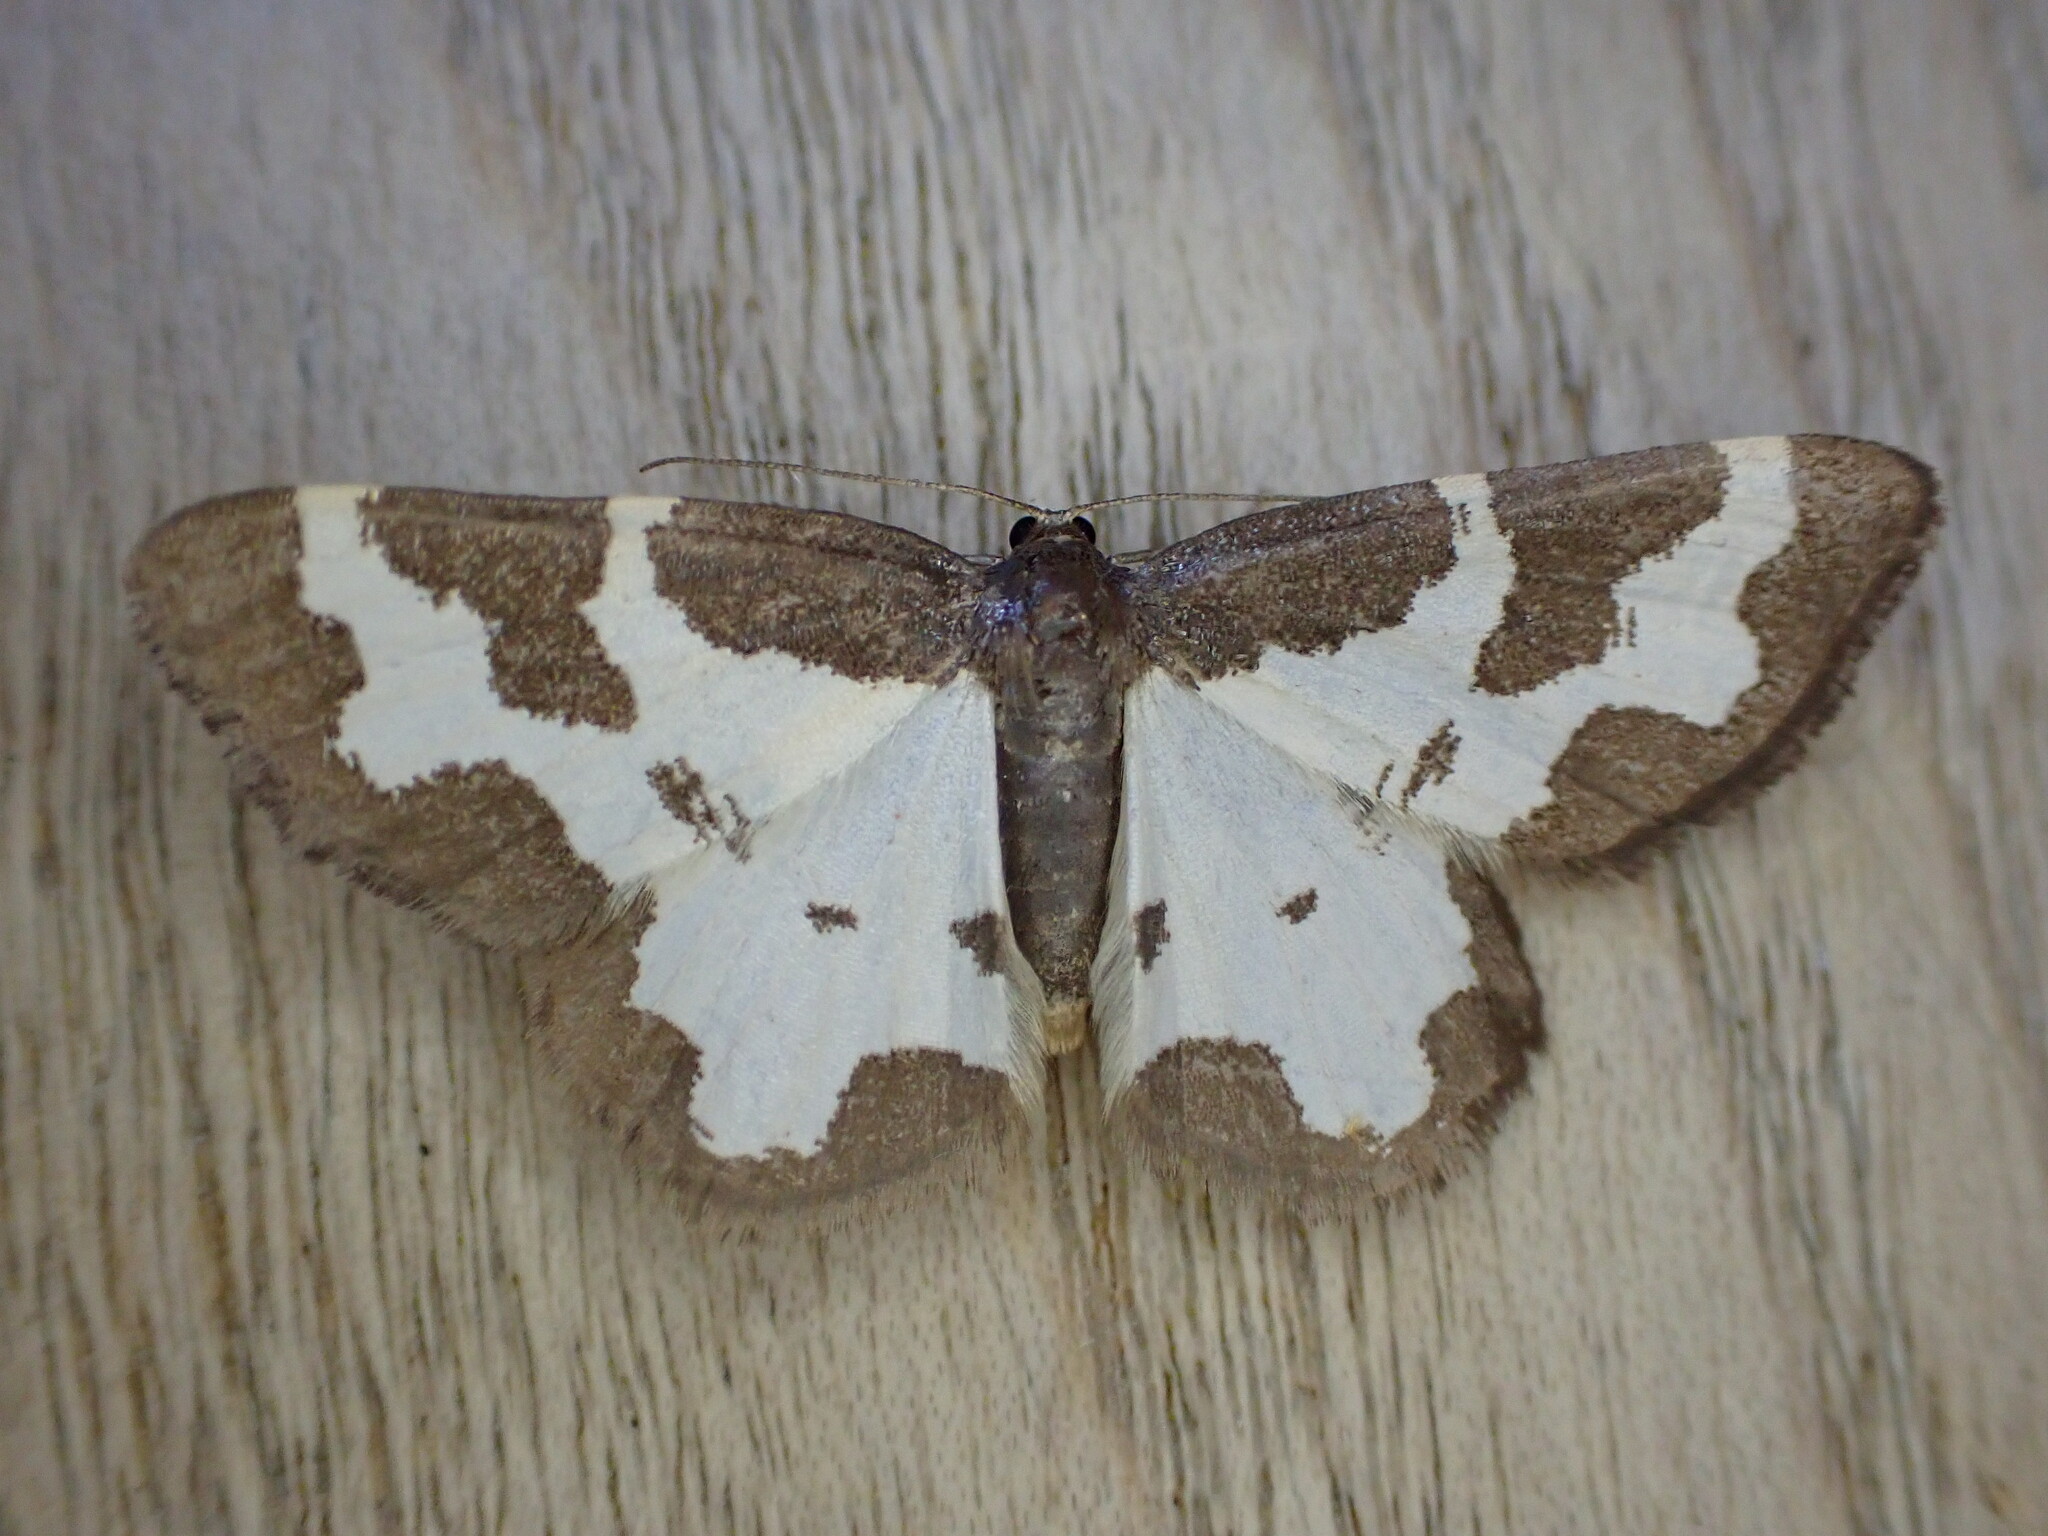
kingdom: Animalia
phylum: Arthropoda
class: Insecta
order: Lepidoptera
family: Geometridae
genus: Lomaspilis
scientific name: Lomaspilis marginata
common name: Clouded border
